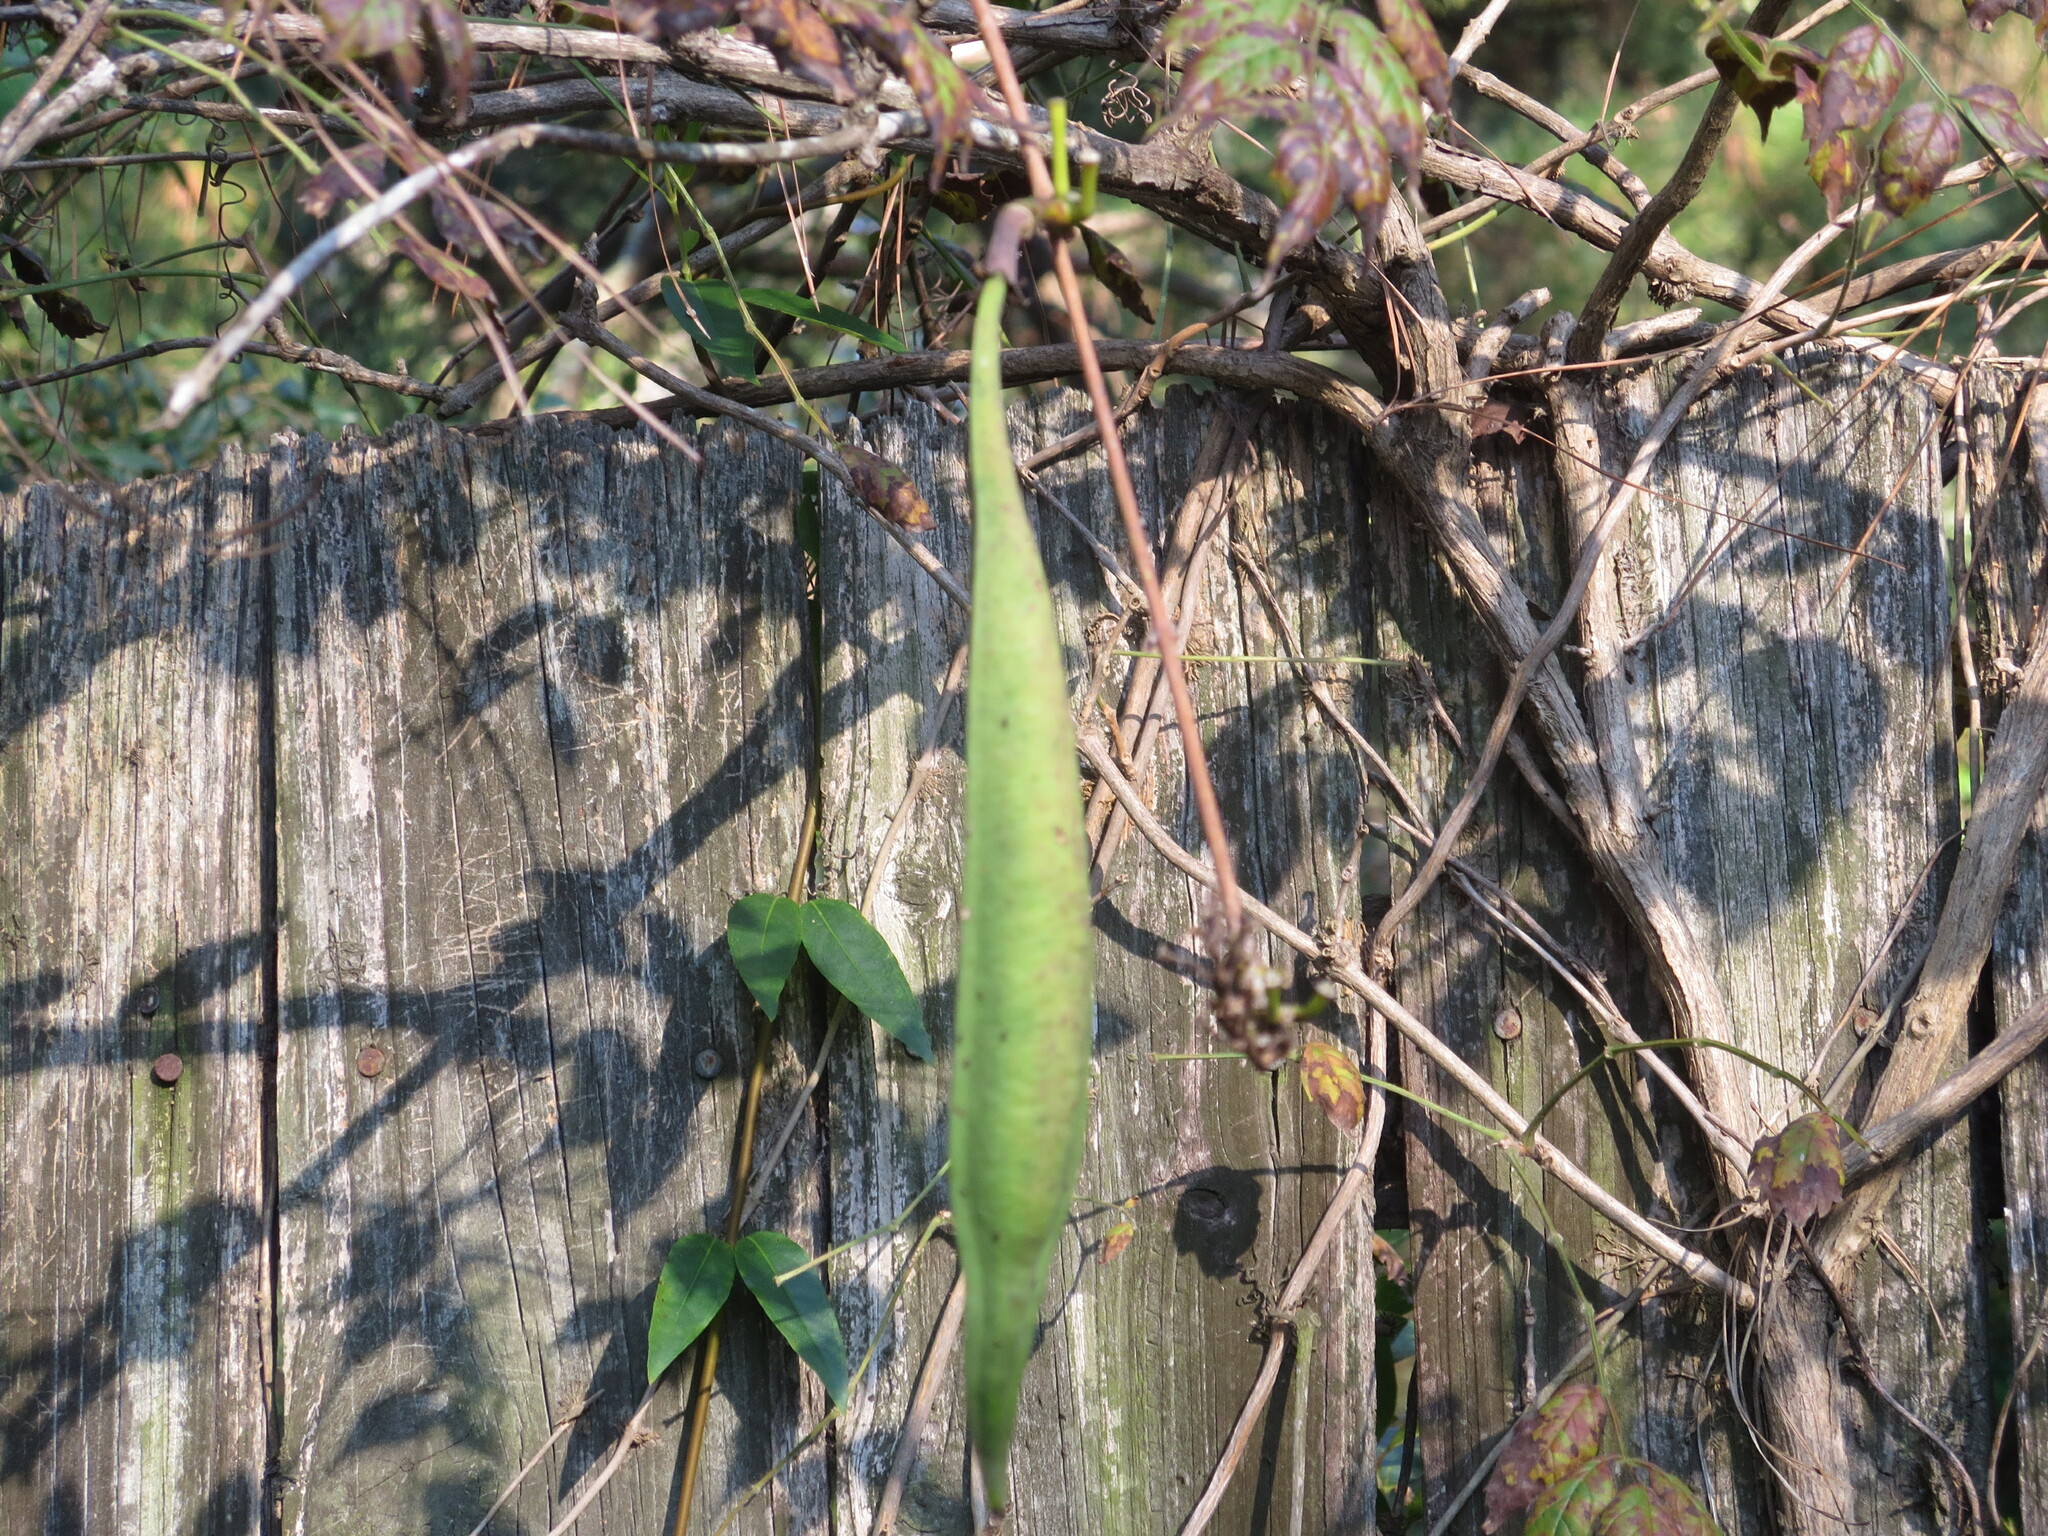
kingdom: Plantae
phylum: Tracheophyta
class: Magnoliopsida
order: Lamiales
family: Bignoniaceae
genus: Campsis
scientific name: Campsis radicans
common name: Trumpet-creeper
